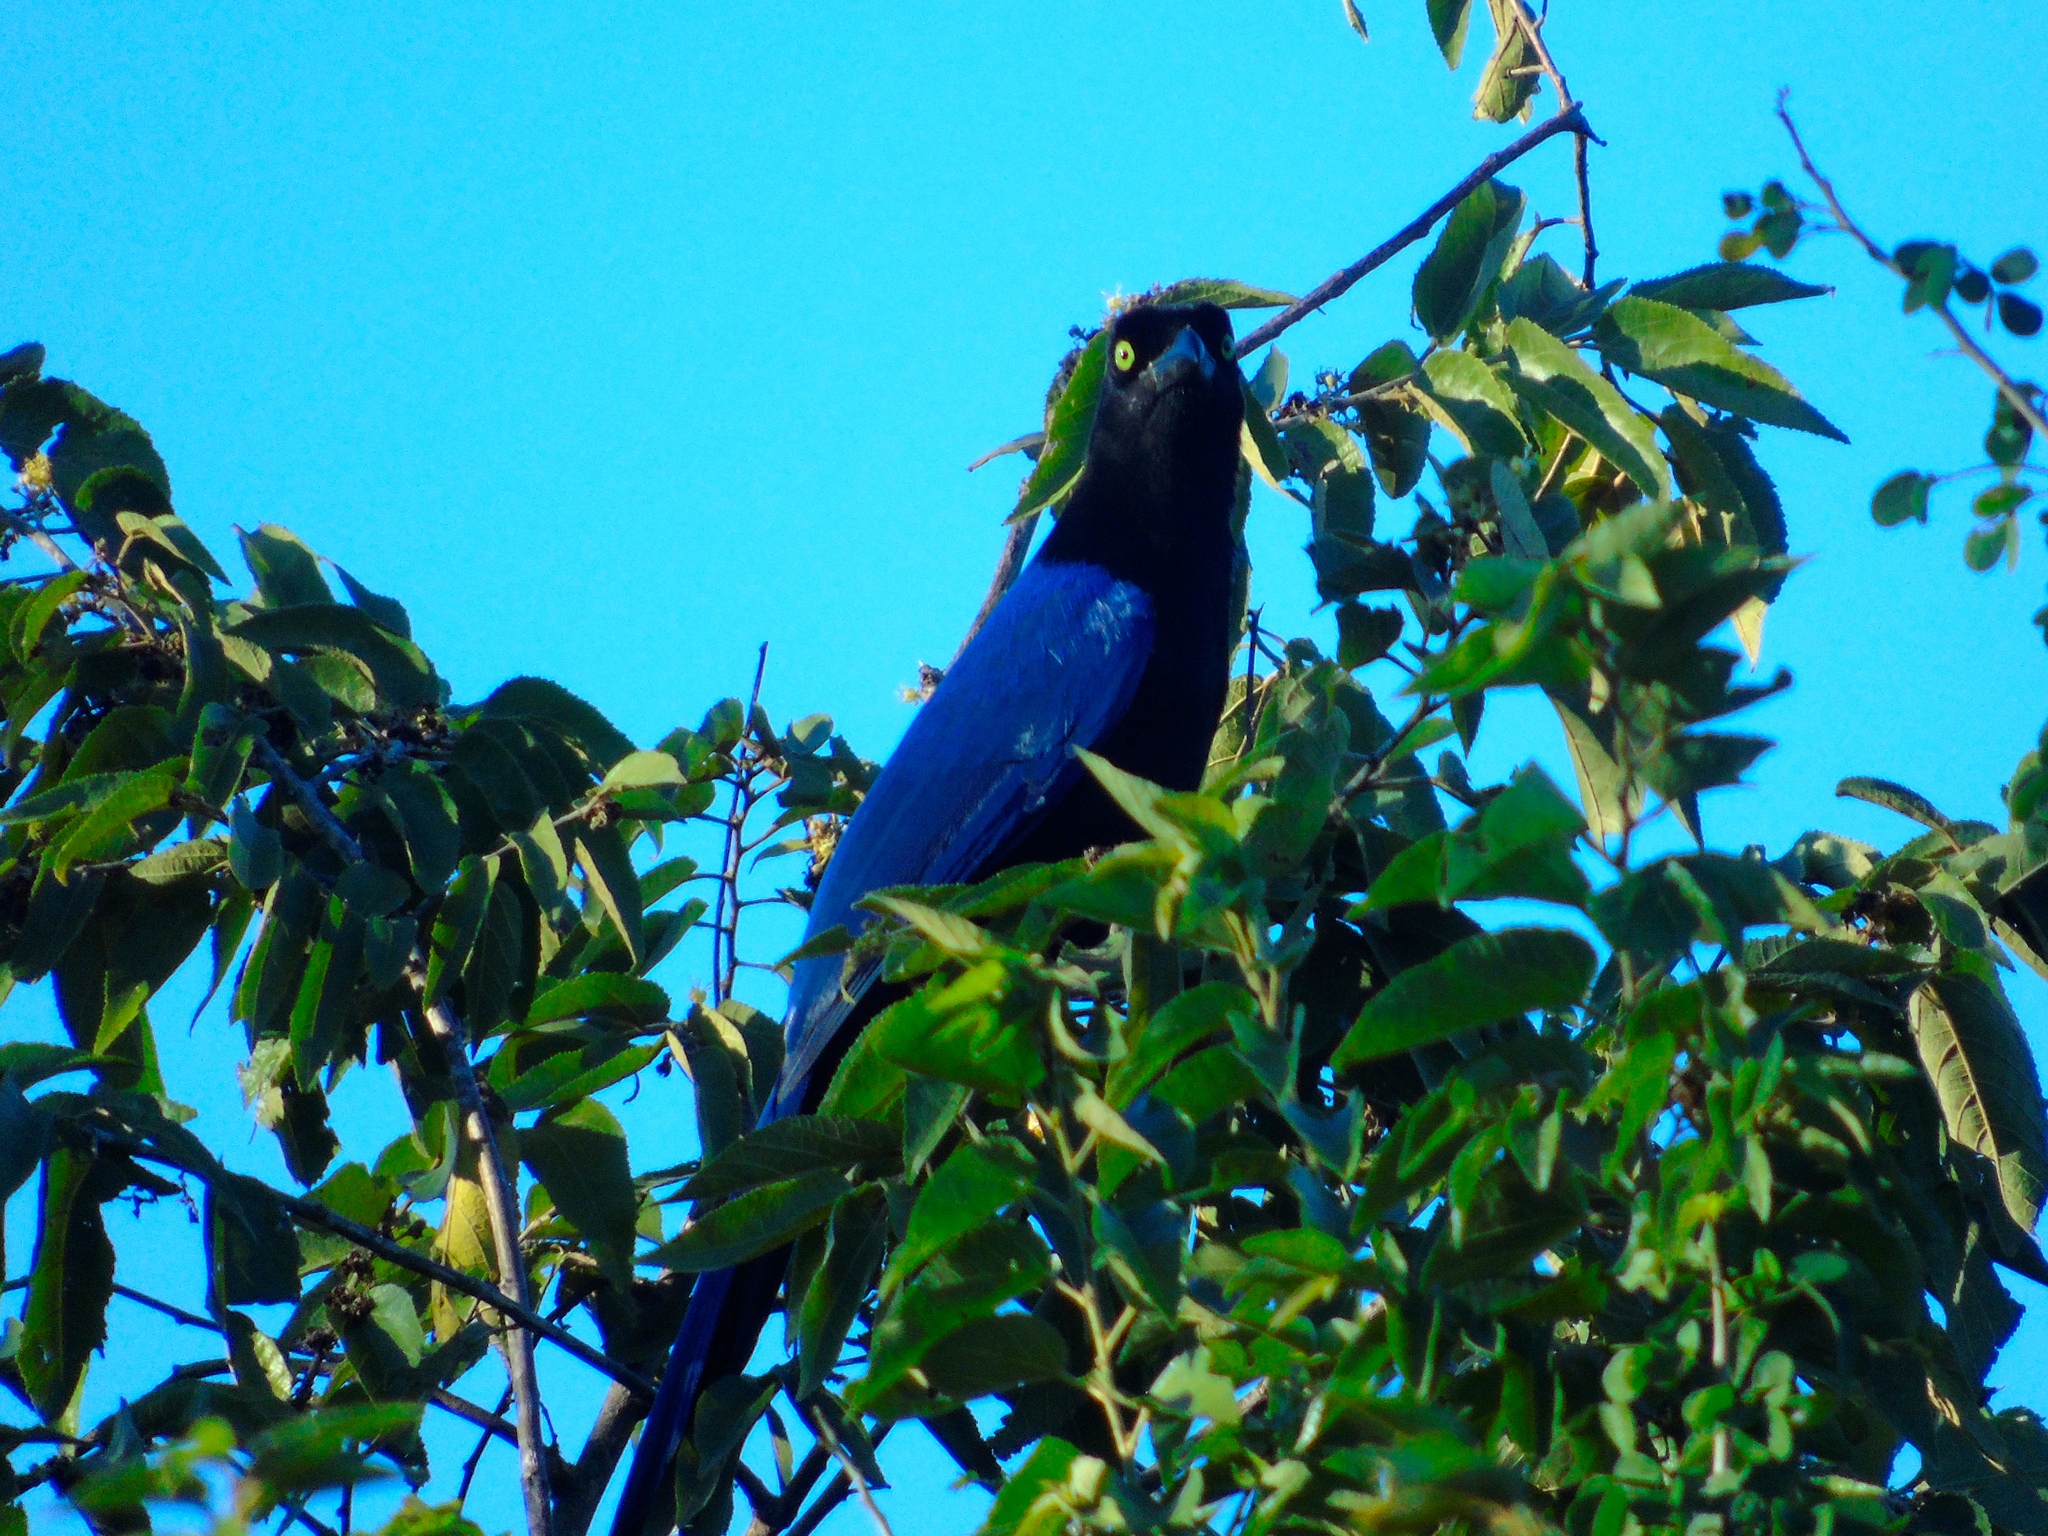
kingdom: Animalia
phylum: Chordata
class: Aves
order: Passeriformes
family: Corvidae
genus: Cyanocorax
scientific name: Cyanocorax beecheii
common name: Purplish-backed jay
